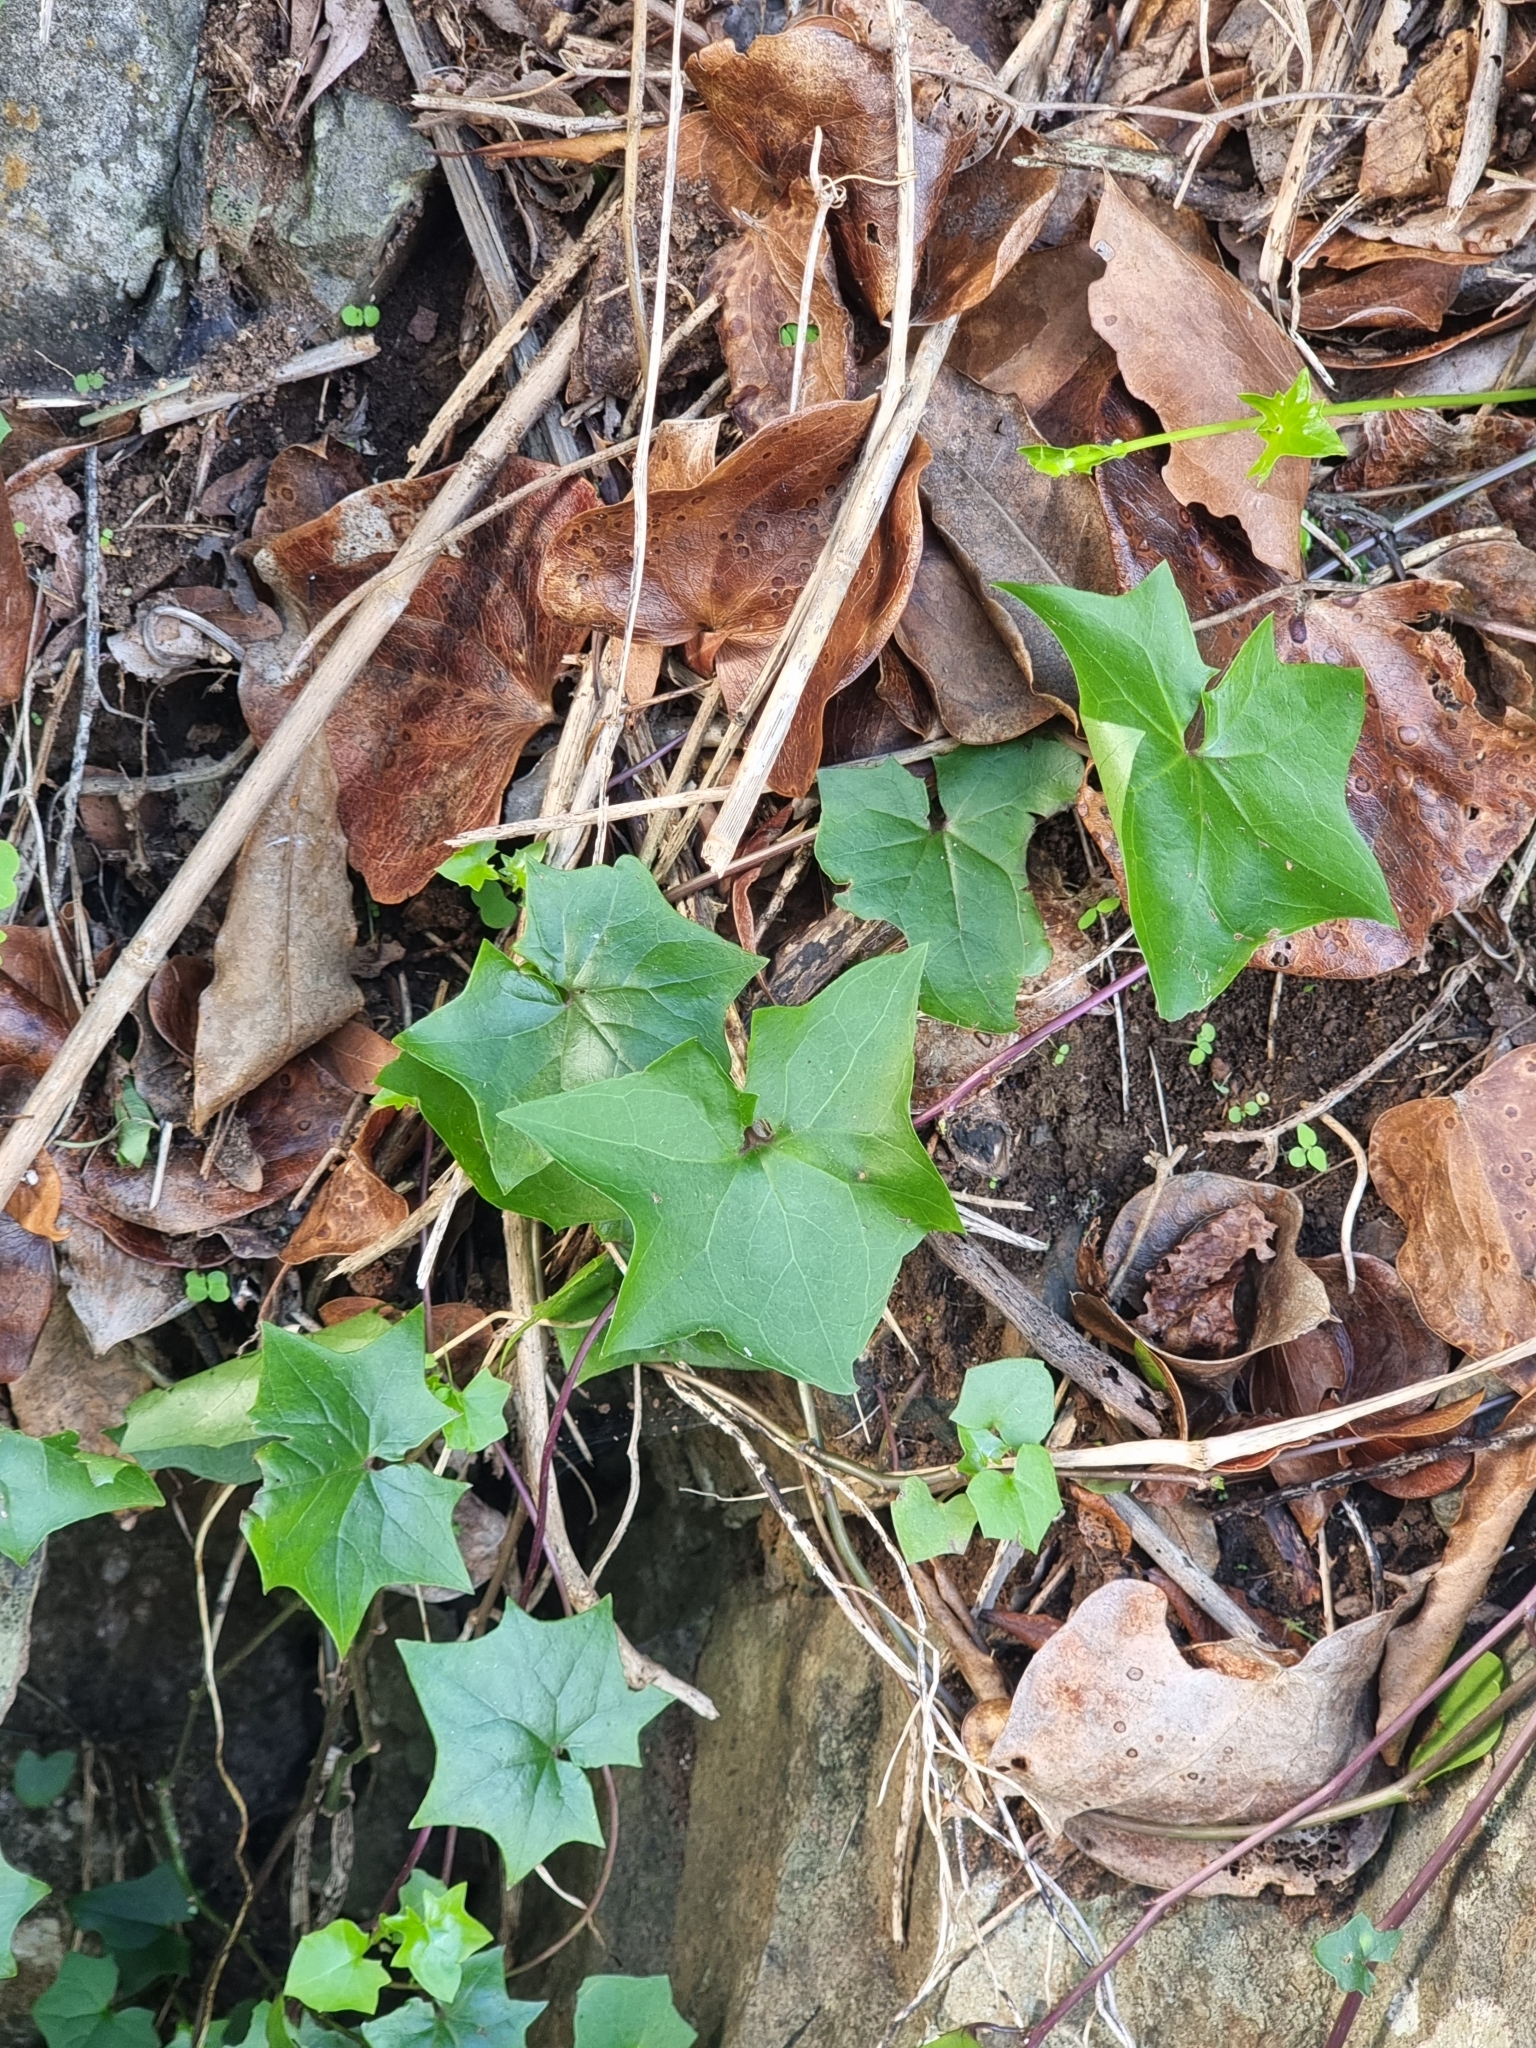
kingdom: Plantae
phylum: Tracheophyta
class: Magnoliopsida
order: Asterales
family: Asteraceae
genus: Delairea
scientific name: Delairea odorata
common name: Cape-ivy
